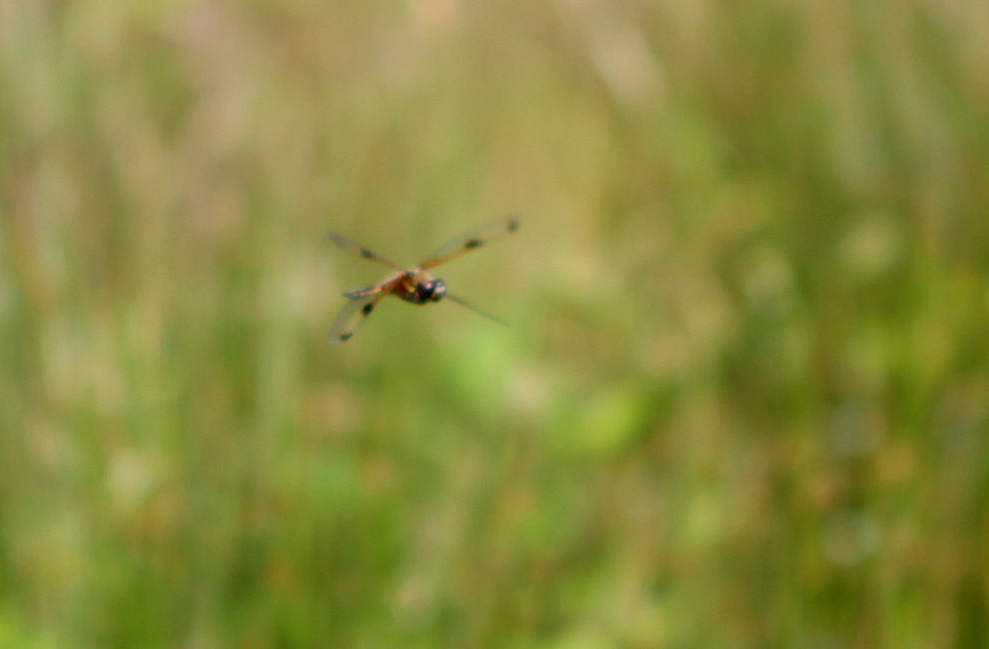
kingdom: Animalia
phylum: Arthropoda
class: Insecta
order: Odonata
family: Libellulidae
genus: Libellula
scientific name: Libellula quadrimaculata
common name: Four-spotted chaser
